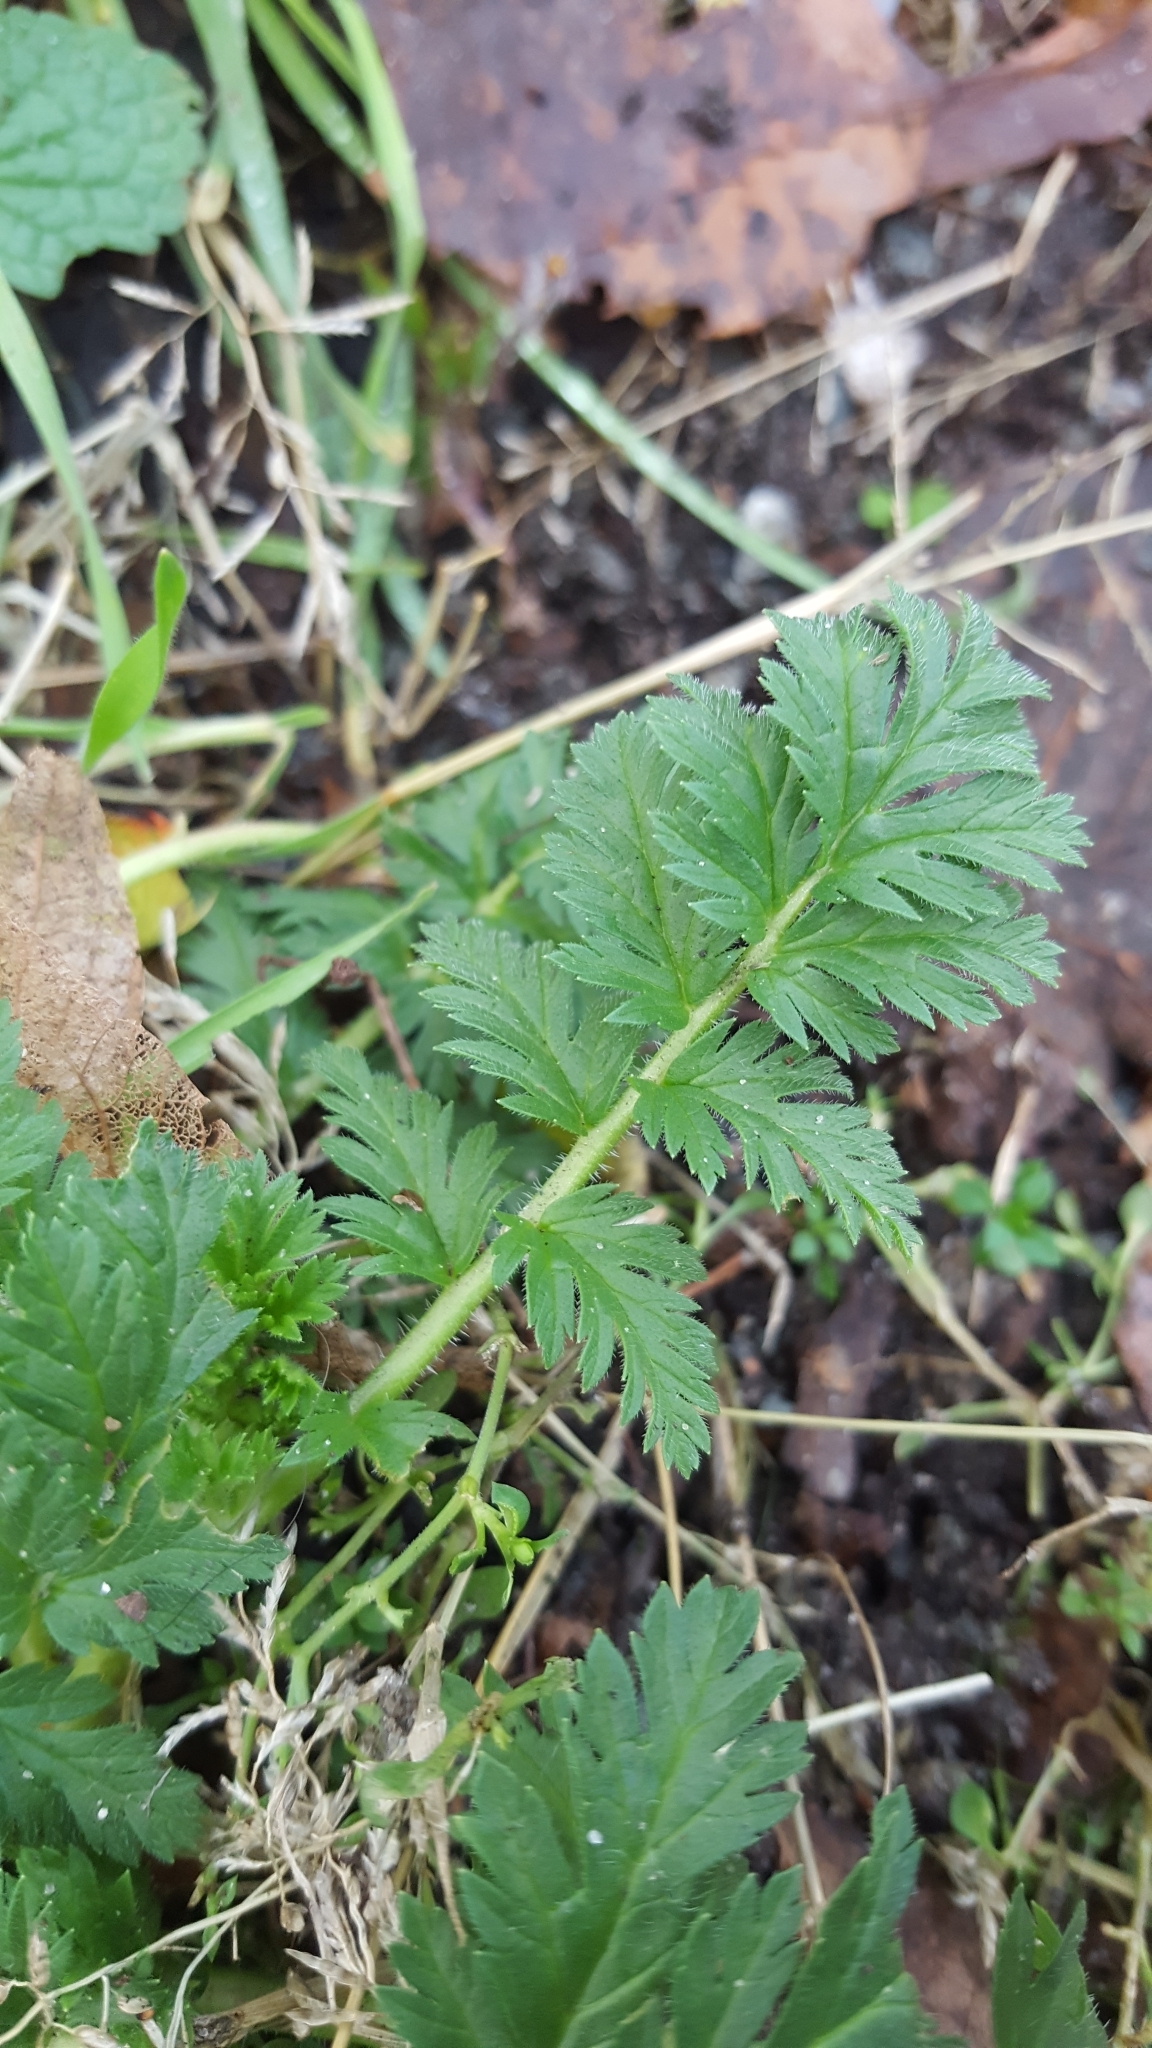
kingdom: Plantae
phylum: Tracheophyta
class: Magnoliopsida
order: Geraniales
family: Geraniaceae
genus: Erodium
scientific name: Erodium cicutarium
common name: Common stork's-bill
